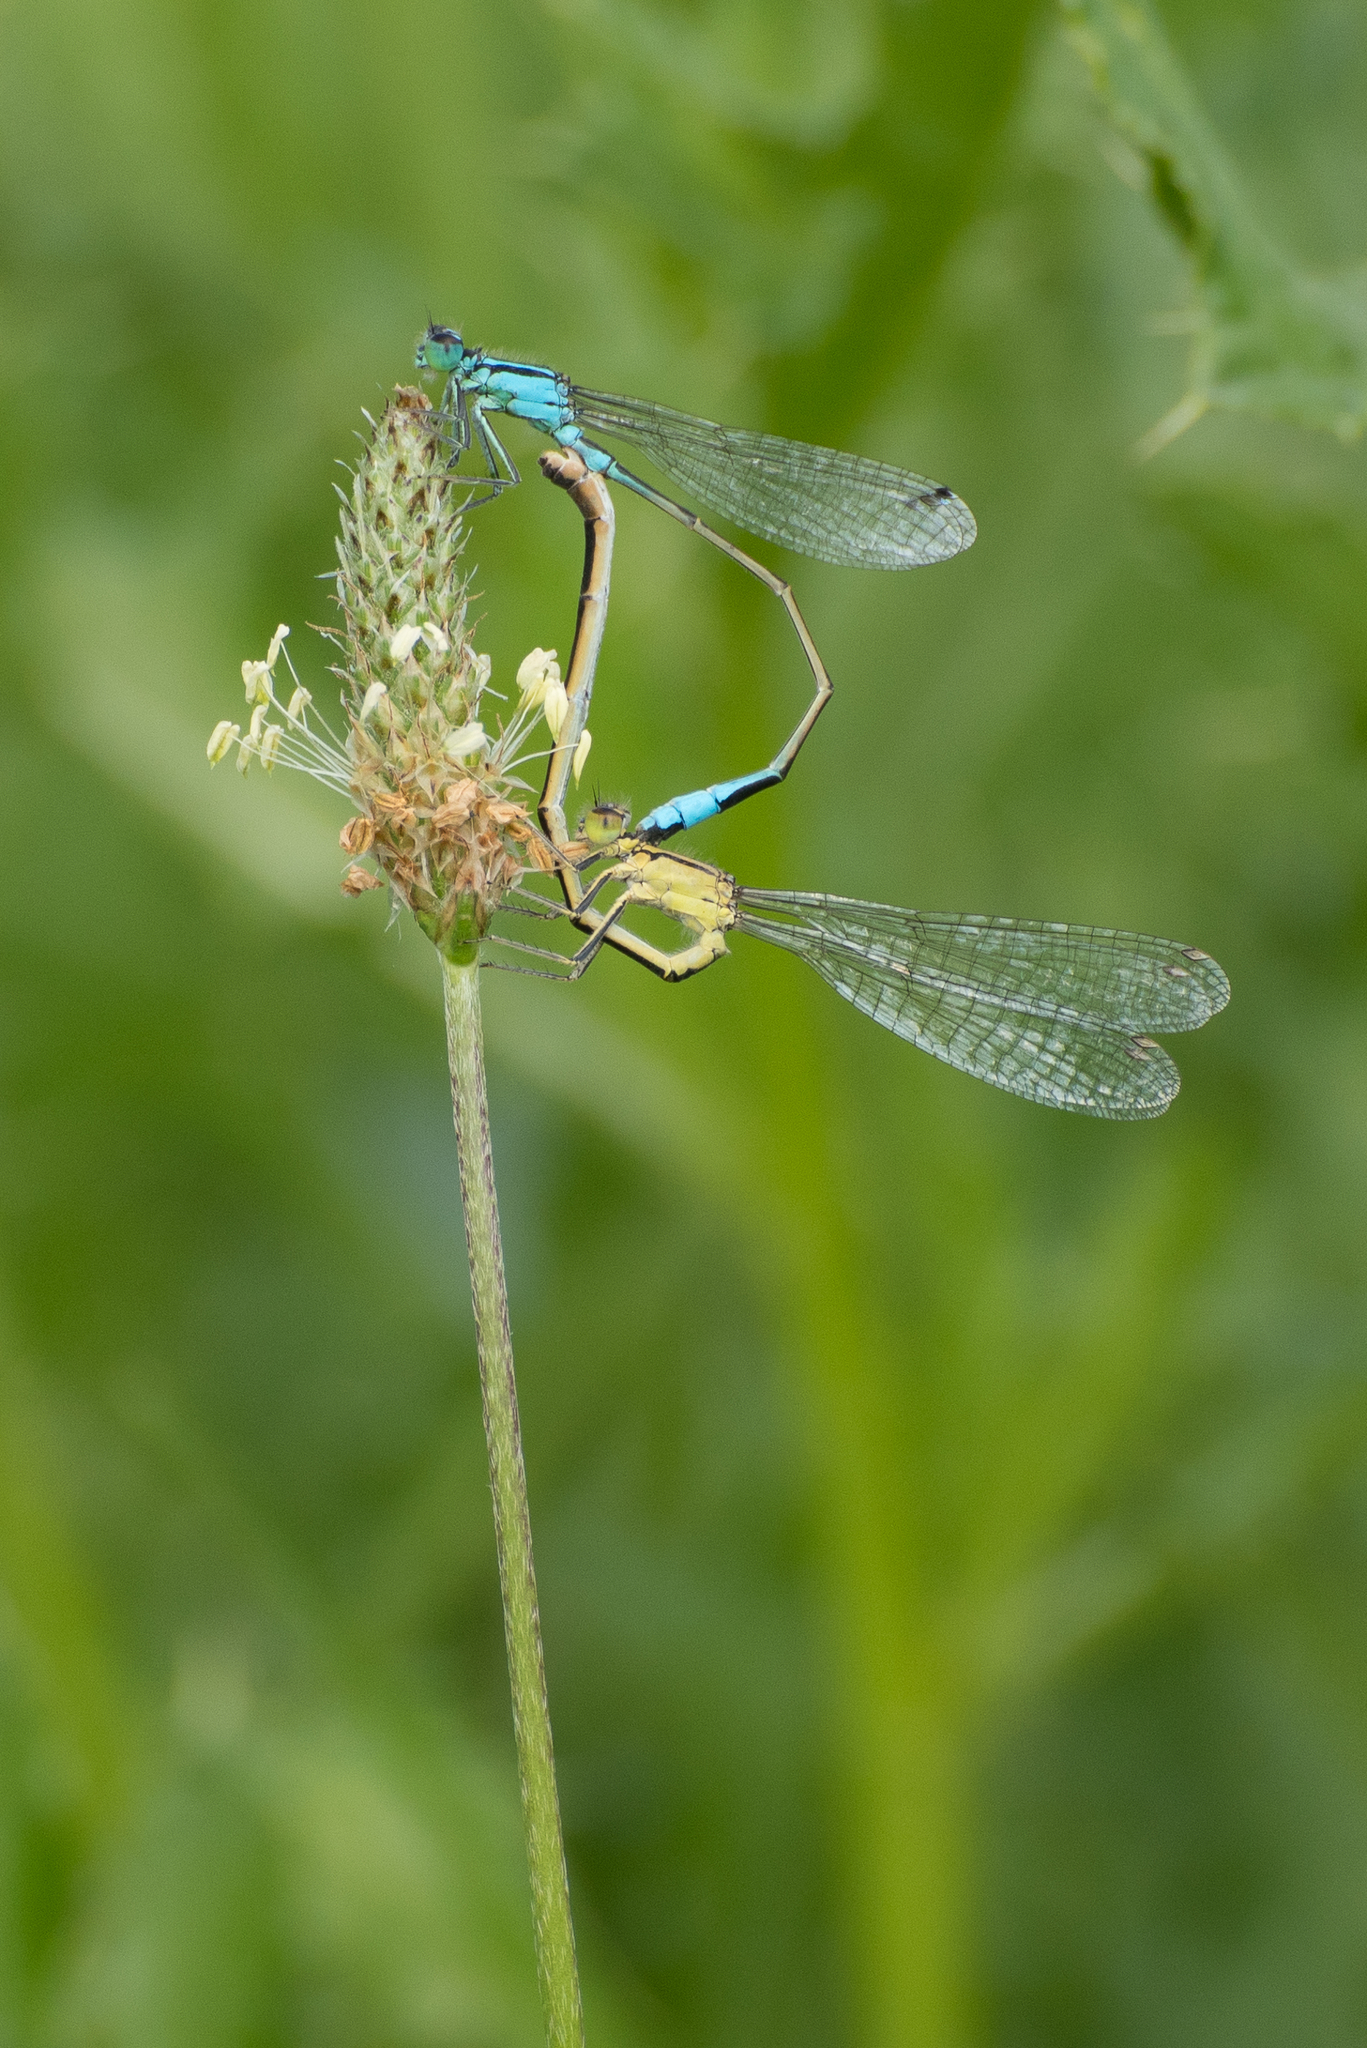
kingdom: Animalia
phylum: Arthropoda
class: Insecta
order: Odonata
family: Coenagrionidae
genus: Ischnura
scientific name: Ischnura elegans
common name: Blue-tailed damselfly
